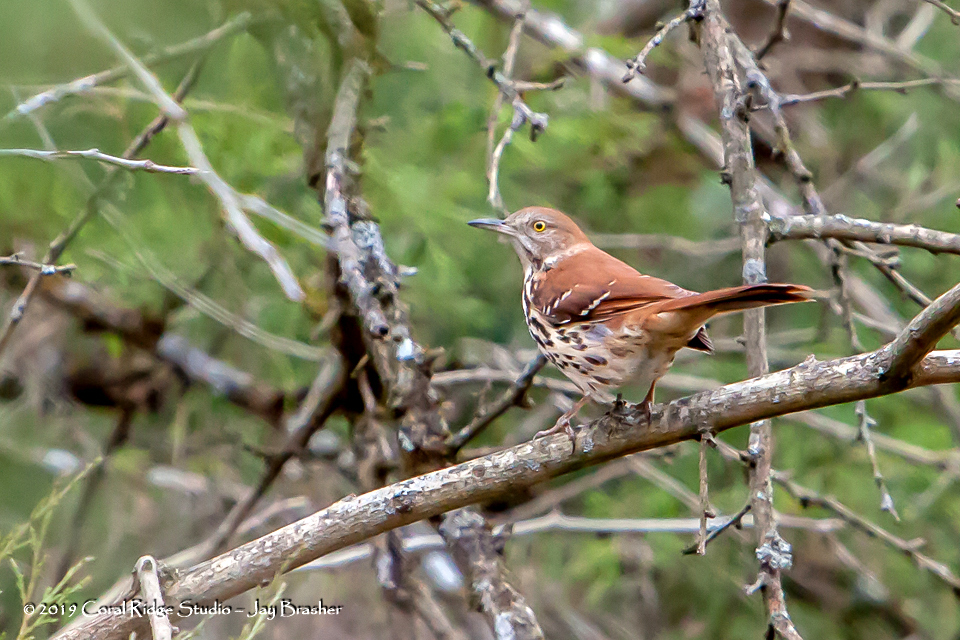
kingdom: Animalia
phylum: Chordata
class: Aves
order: Passeriformes
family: Mimidae
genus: Toxostoma
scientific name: Toxostoma rufum
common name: Brown thrasher
